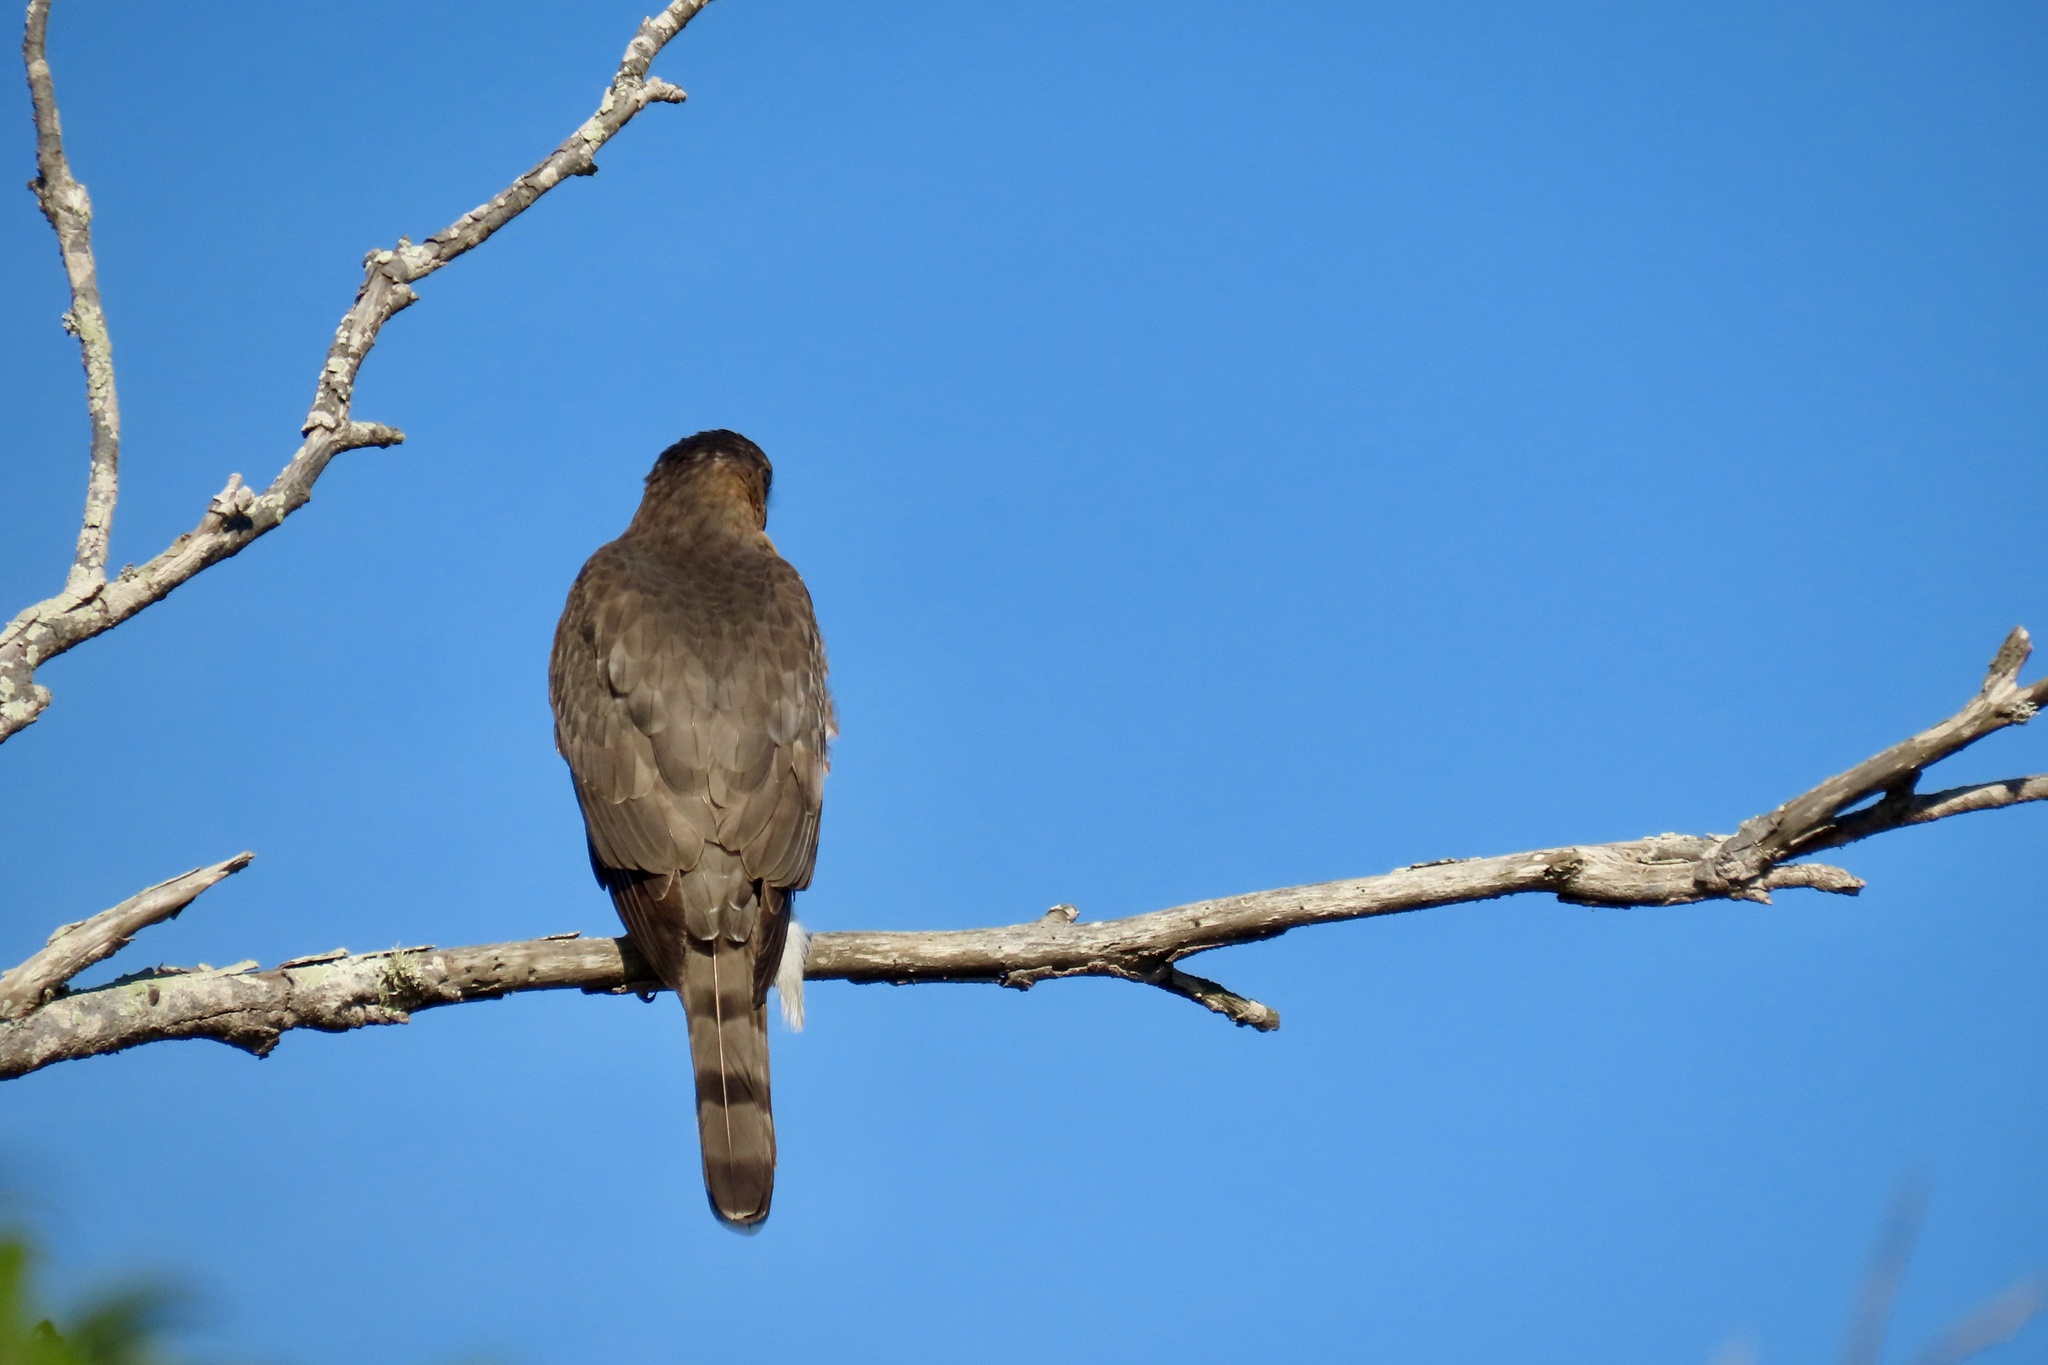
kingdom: Animalia
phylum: Chordata
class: Aves
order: Accipitriformes
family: Accipitridae
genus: Accipiter
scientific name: Accipiter cooperii
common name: Cooper's hawk
